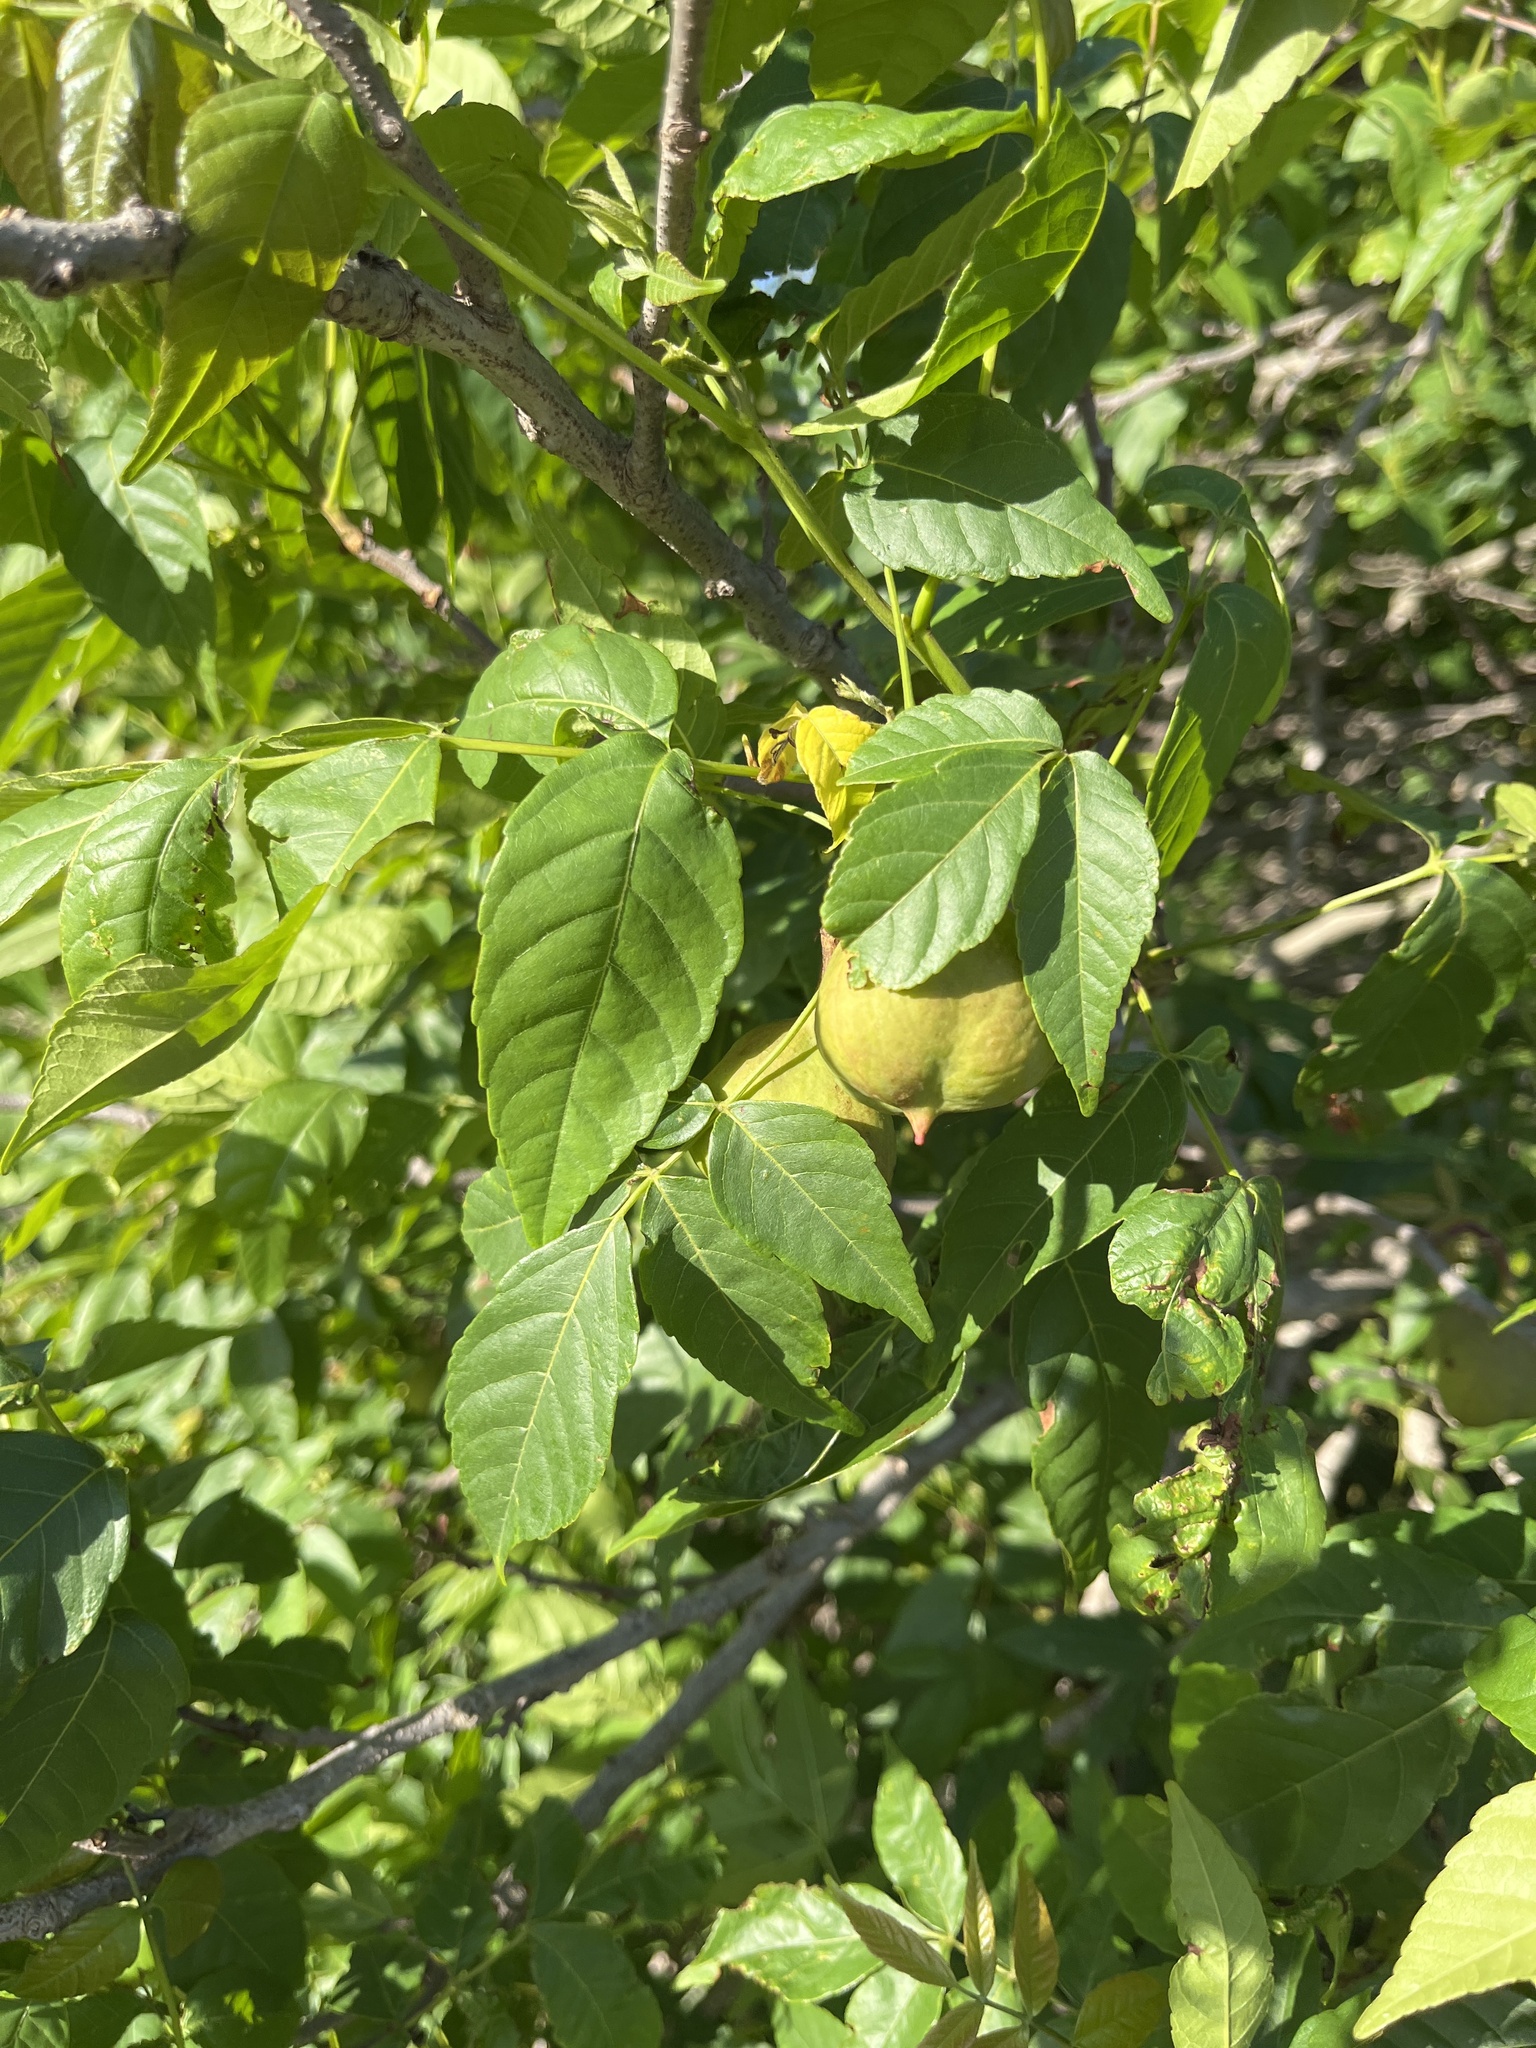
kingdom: Plantae
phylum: Tracheophyta
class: Magnoliopsida
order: Sapindales
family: Sapindaceae
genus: Ungnadia
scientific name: Ungnadia speciosa
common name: Texas-buckeye
